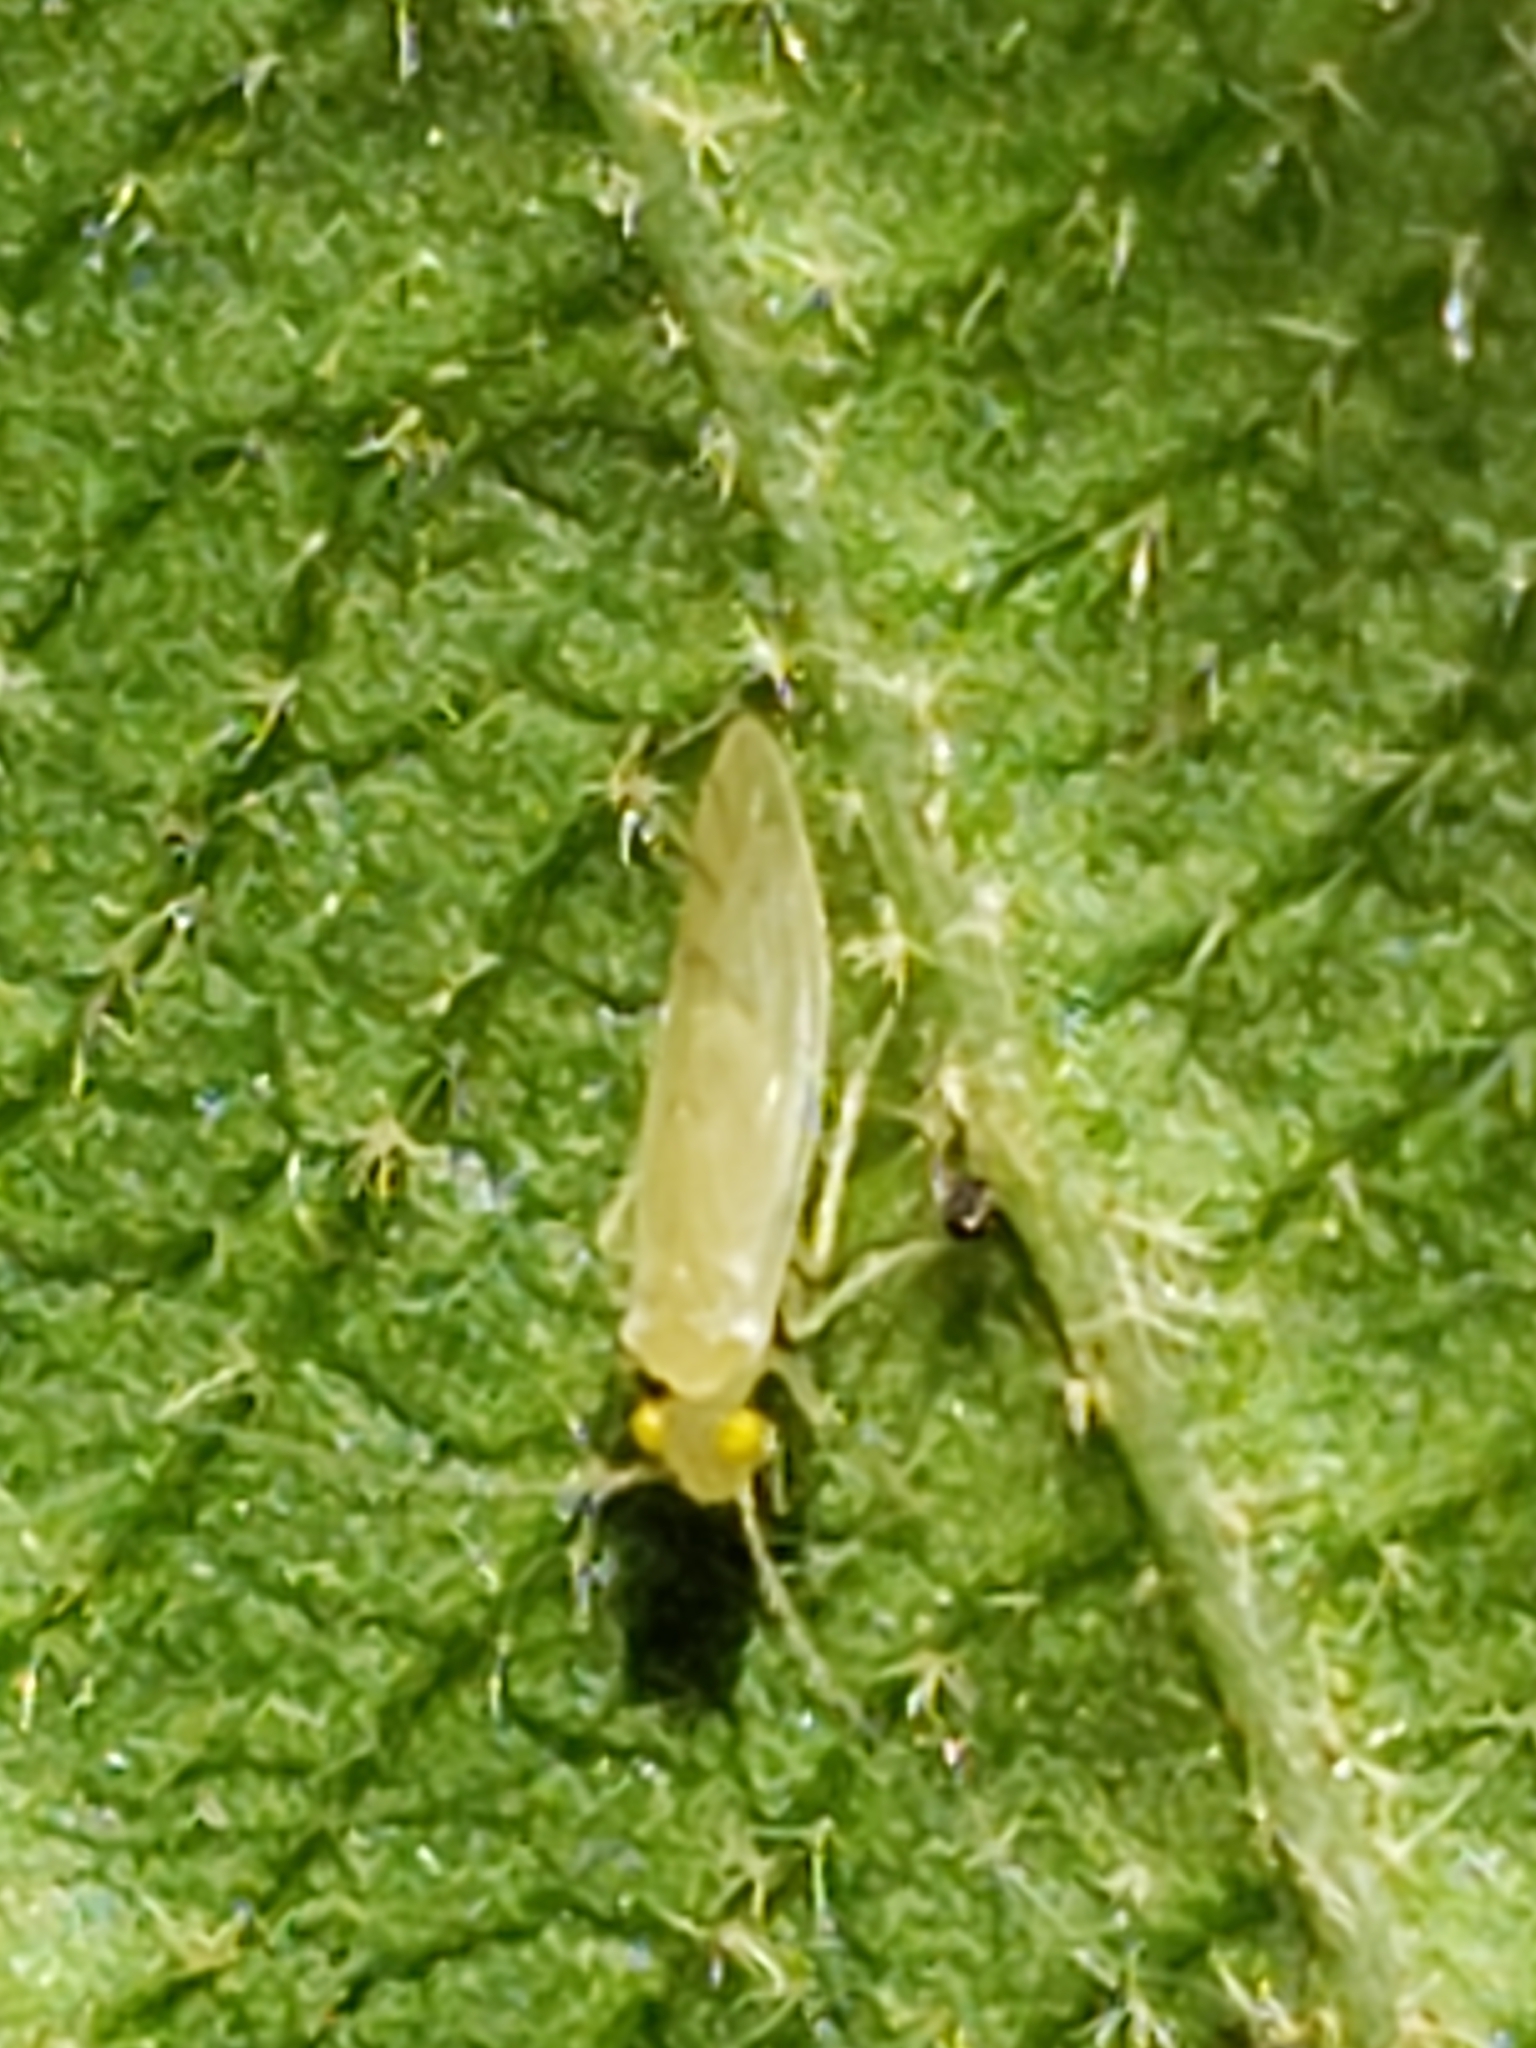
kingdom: Animalia
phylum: Arthropoda
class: Insecta
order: Psocodea
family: Paracaeciliidae
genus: Xanthocaecilius
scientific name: Xanthocaecilius sommermanae
